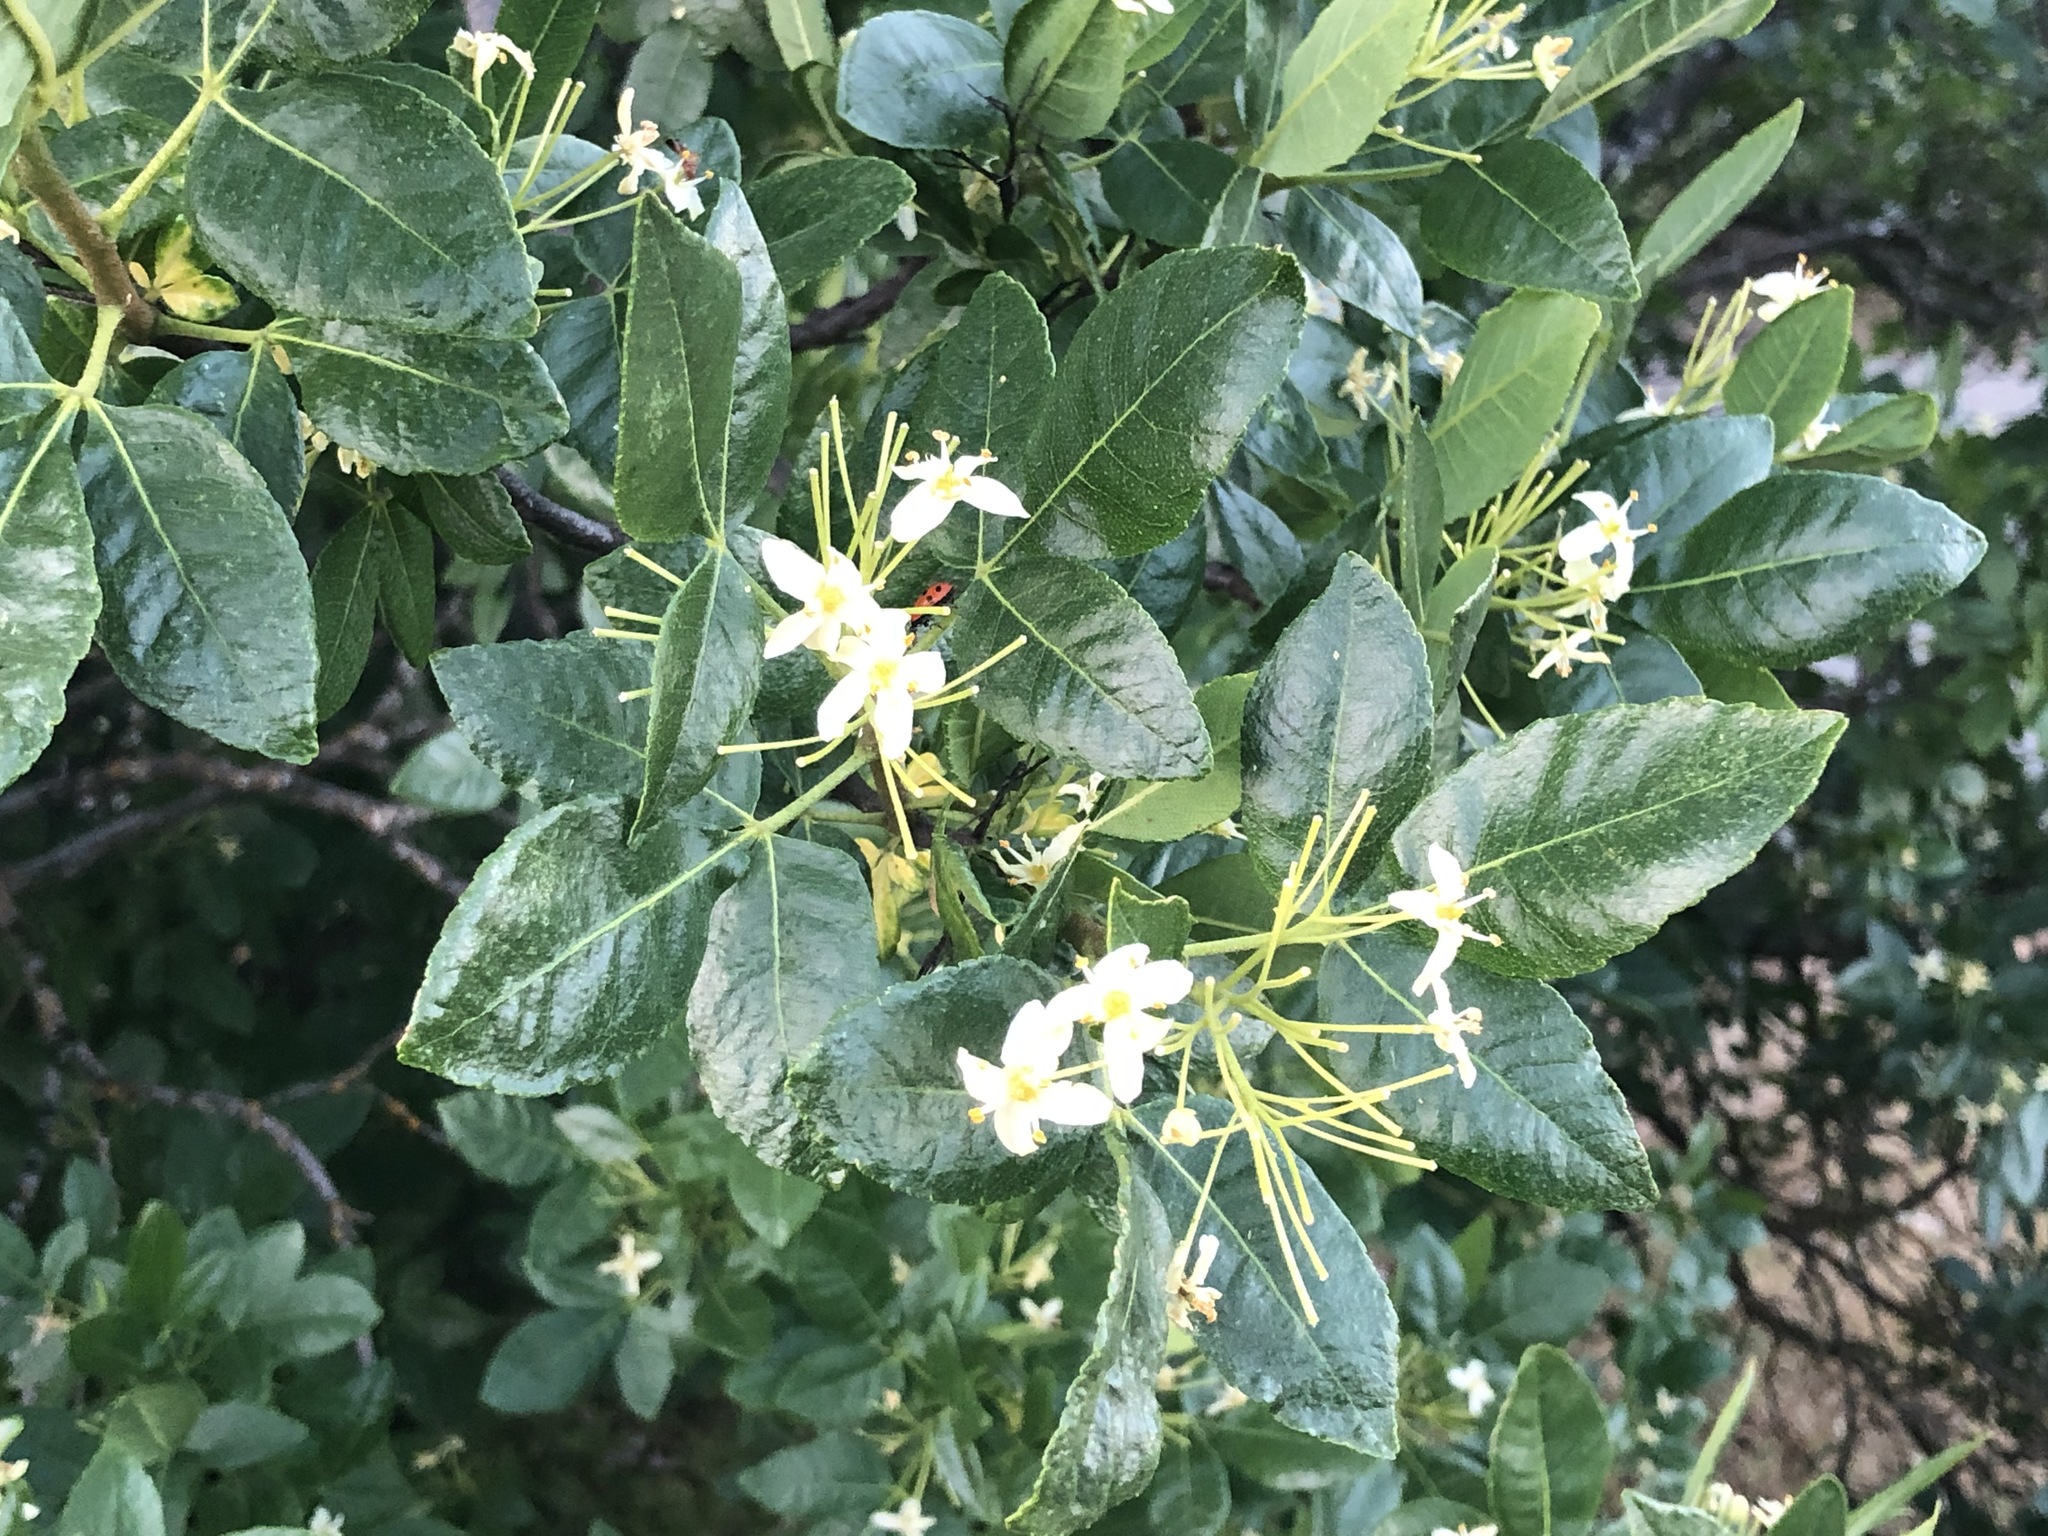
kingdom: Plantae
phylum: Tracheophyta
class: Magnoliopsida
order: Sapindales
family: Rutaceae
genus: Ptelea
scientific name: Ptelea crenulata
